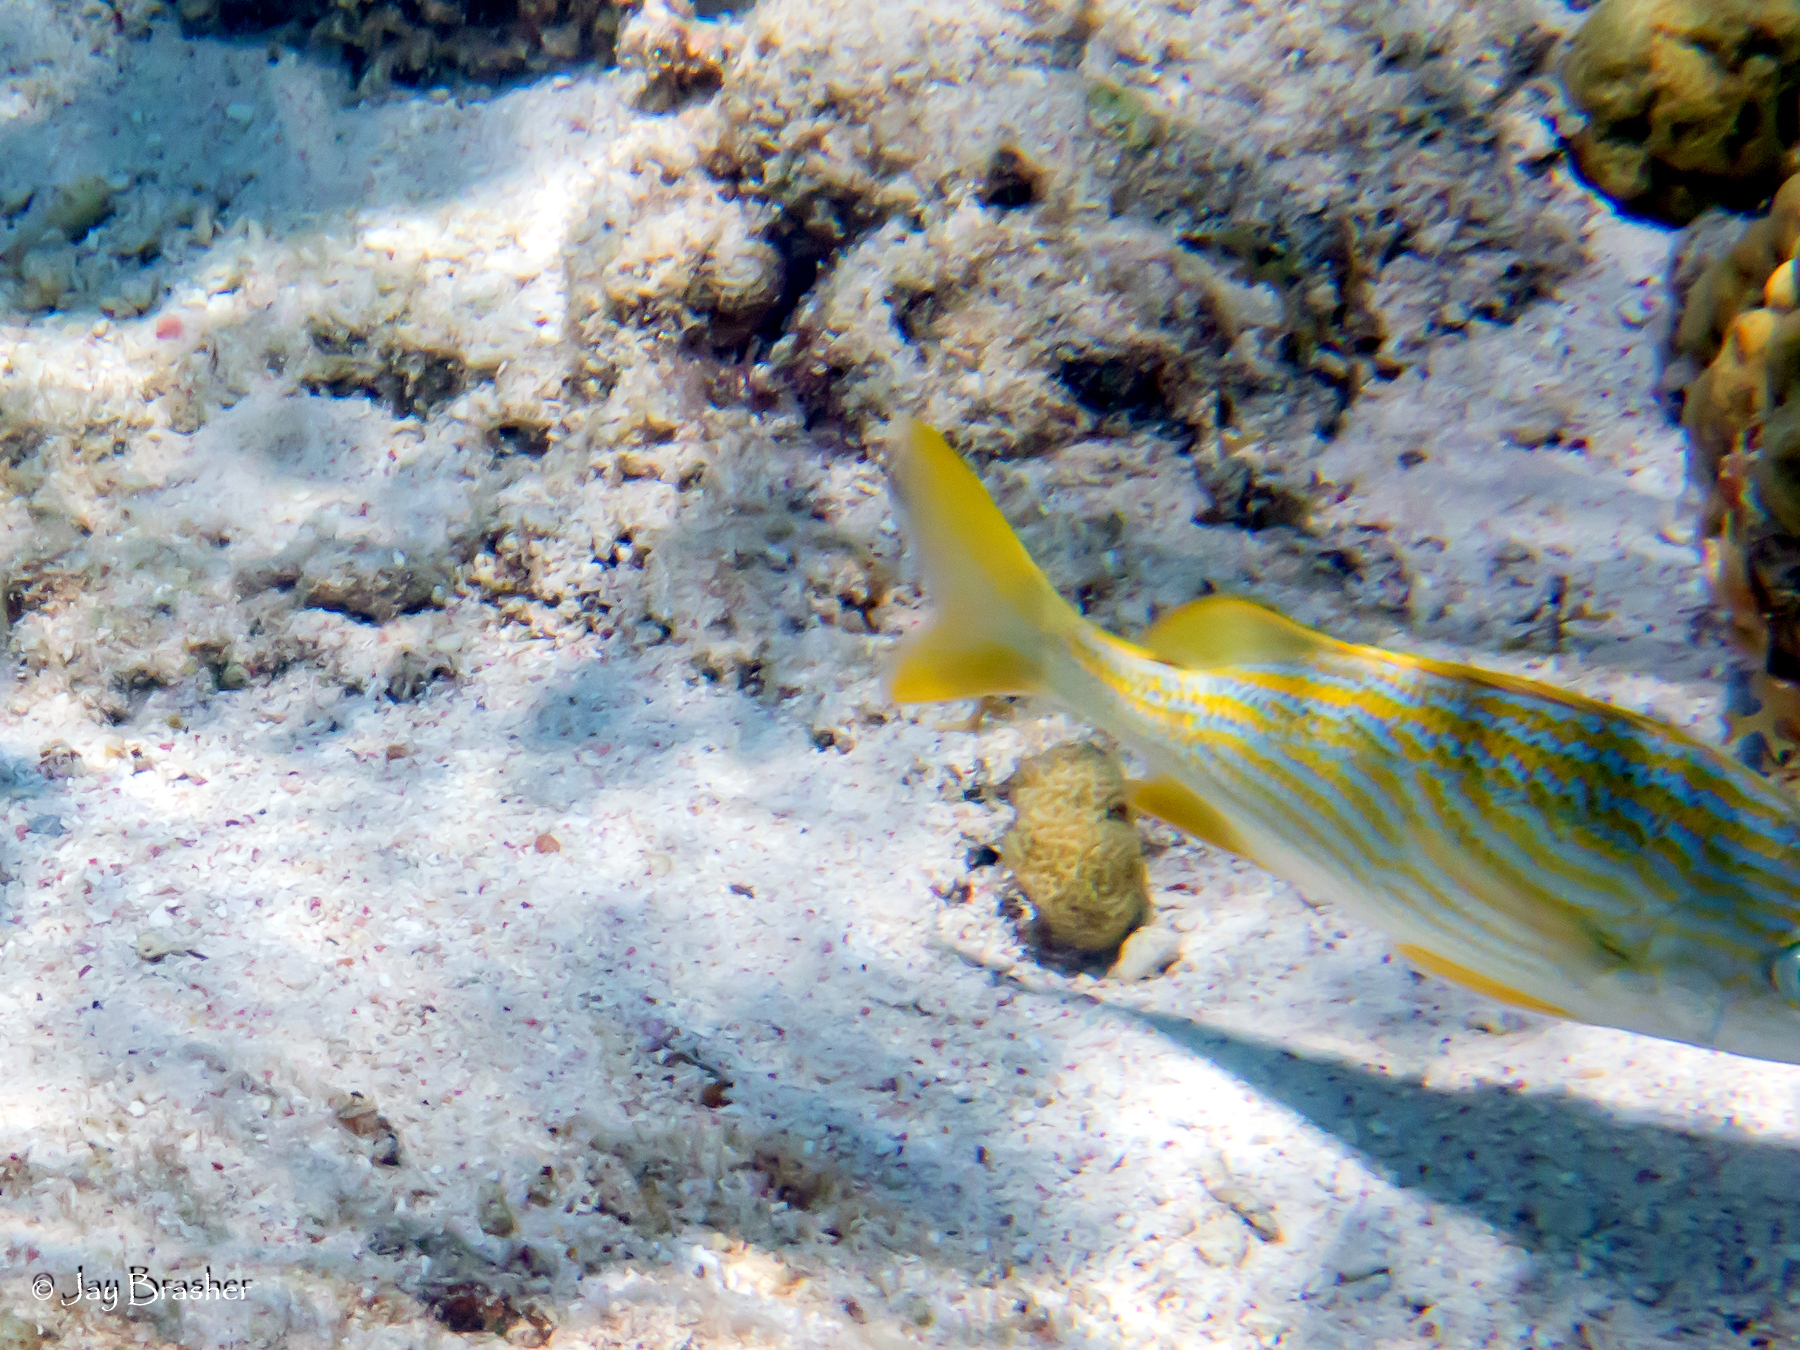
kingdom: Animalia
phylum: Chordata
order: Perciformes
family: Haemulidae
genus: Haemulon
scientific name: Haemulon flavolineatum
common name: French grunt
